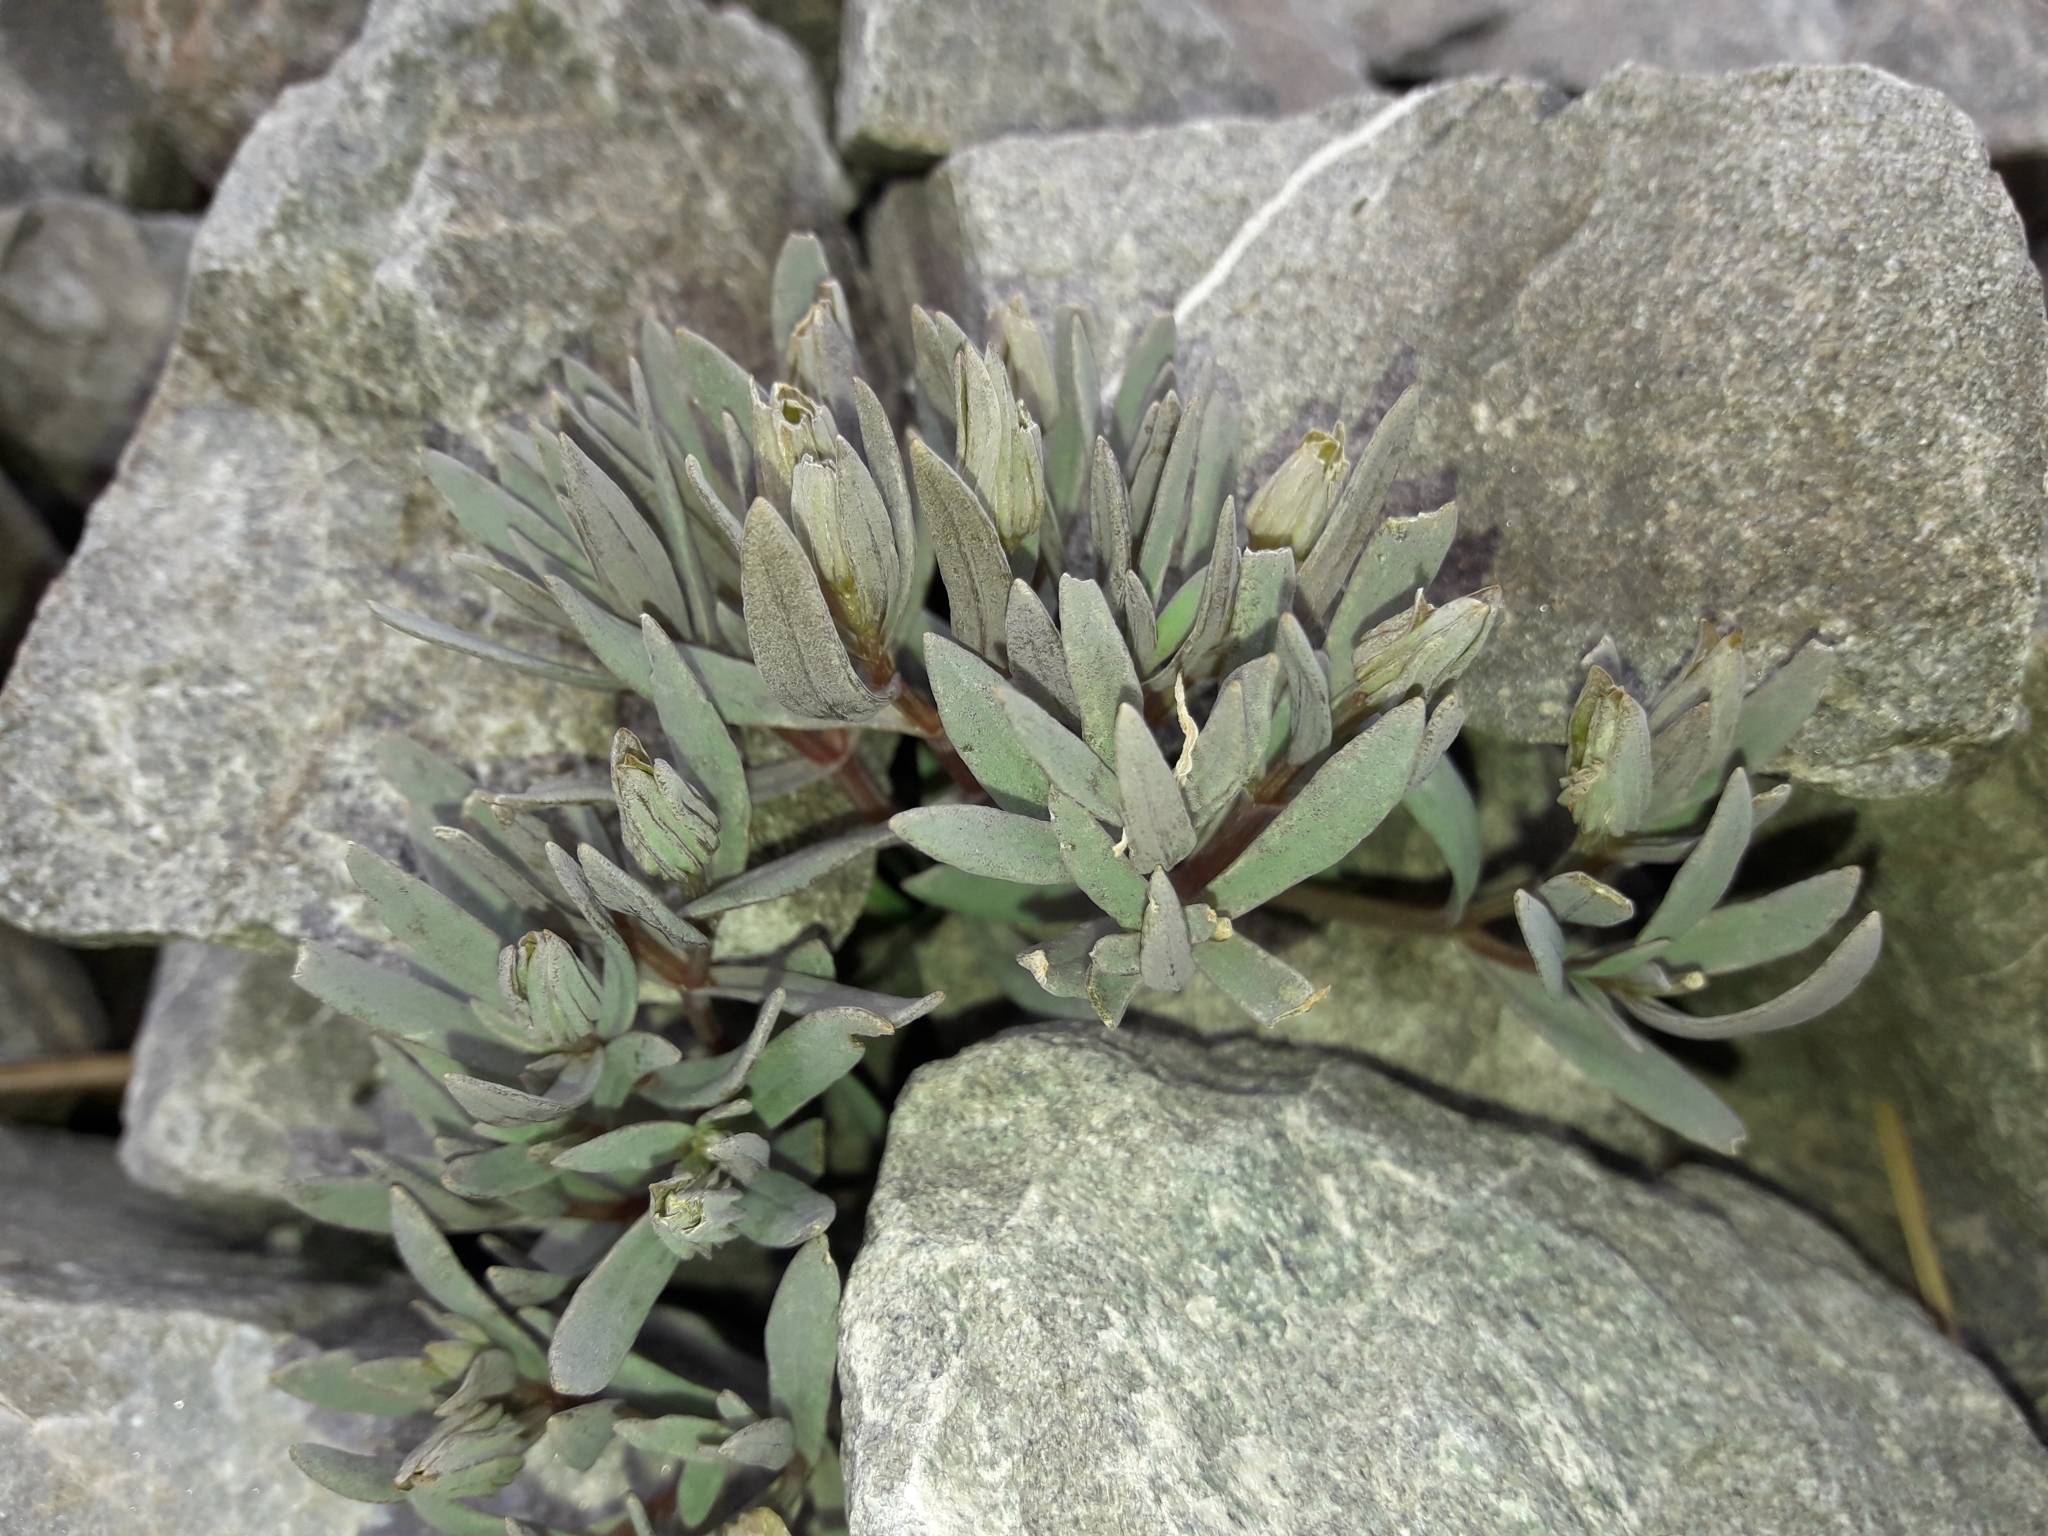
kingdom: Plantae
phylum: Tracheophyta
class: Magnoliopsida
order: Caryophyllales
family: Caryophyllaceae
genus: Stellaria
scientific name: Stellaria roughii
